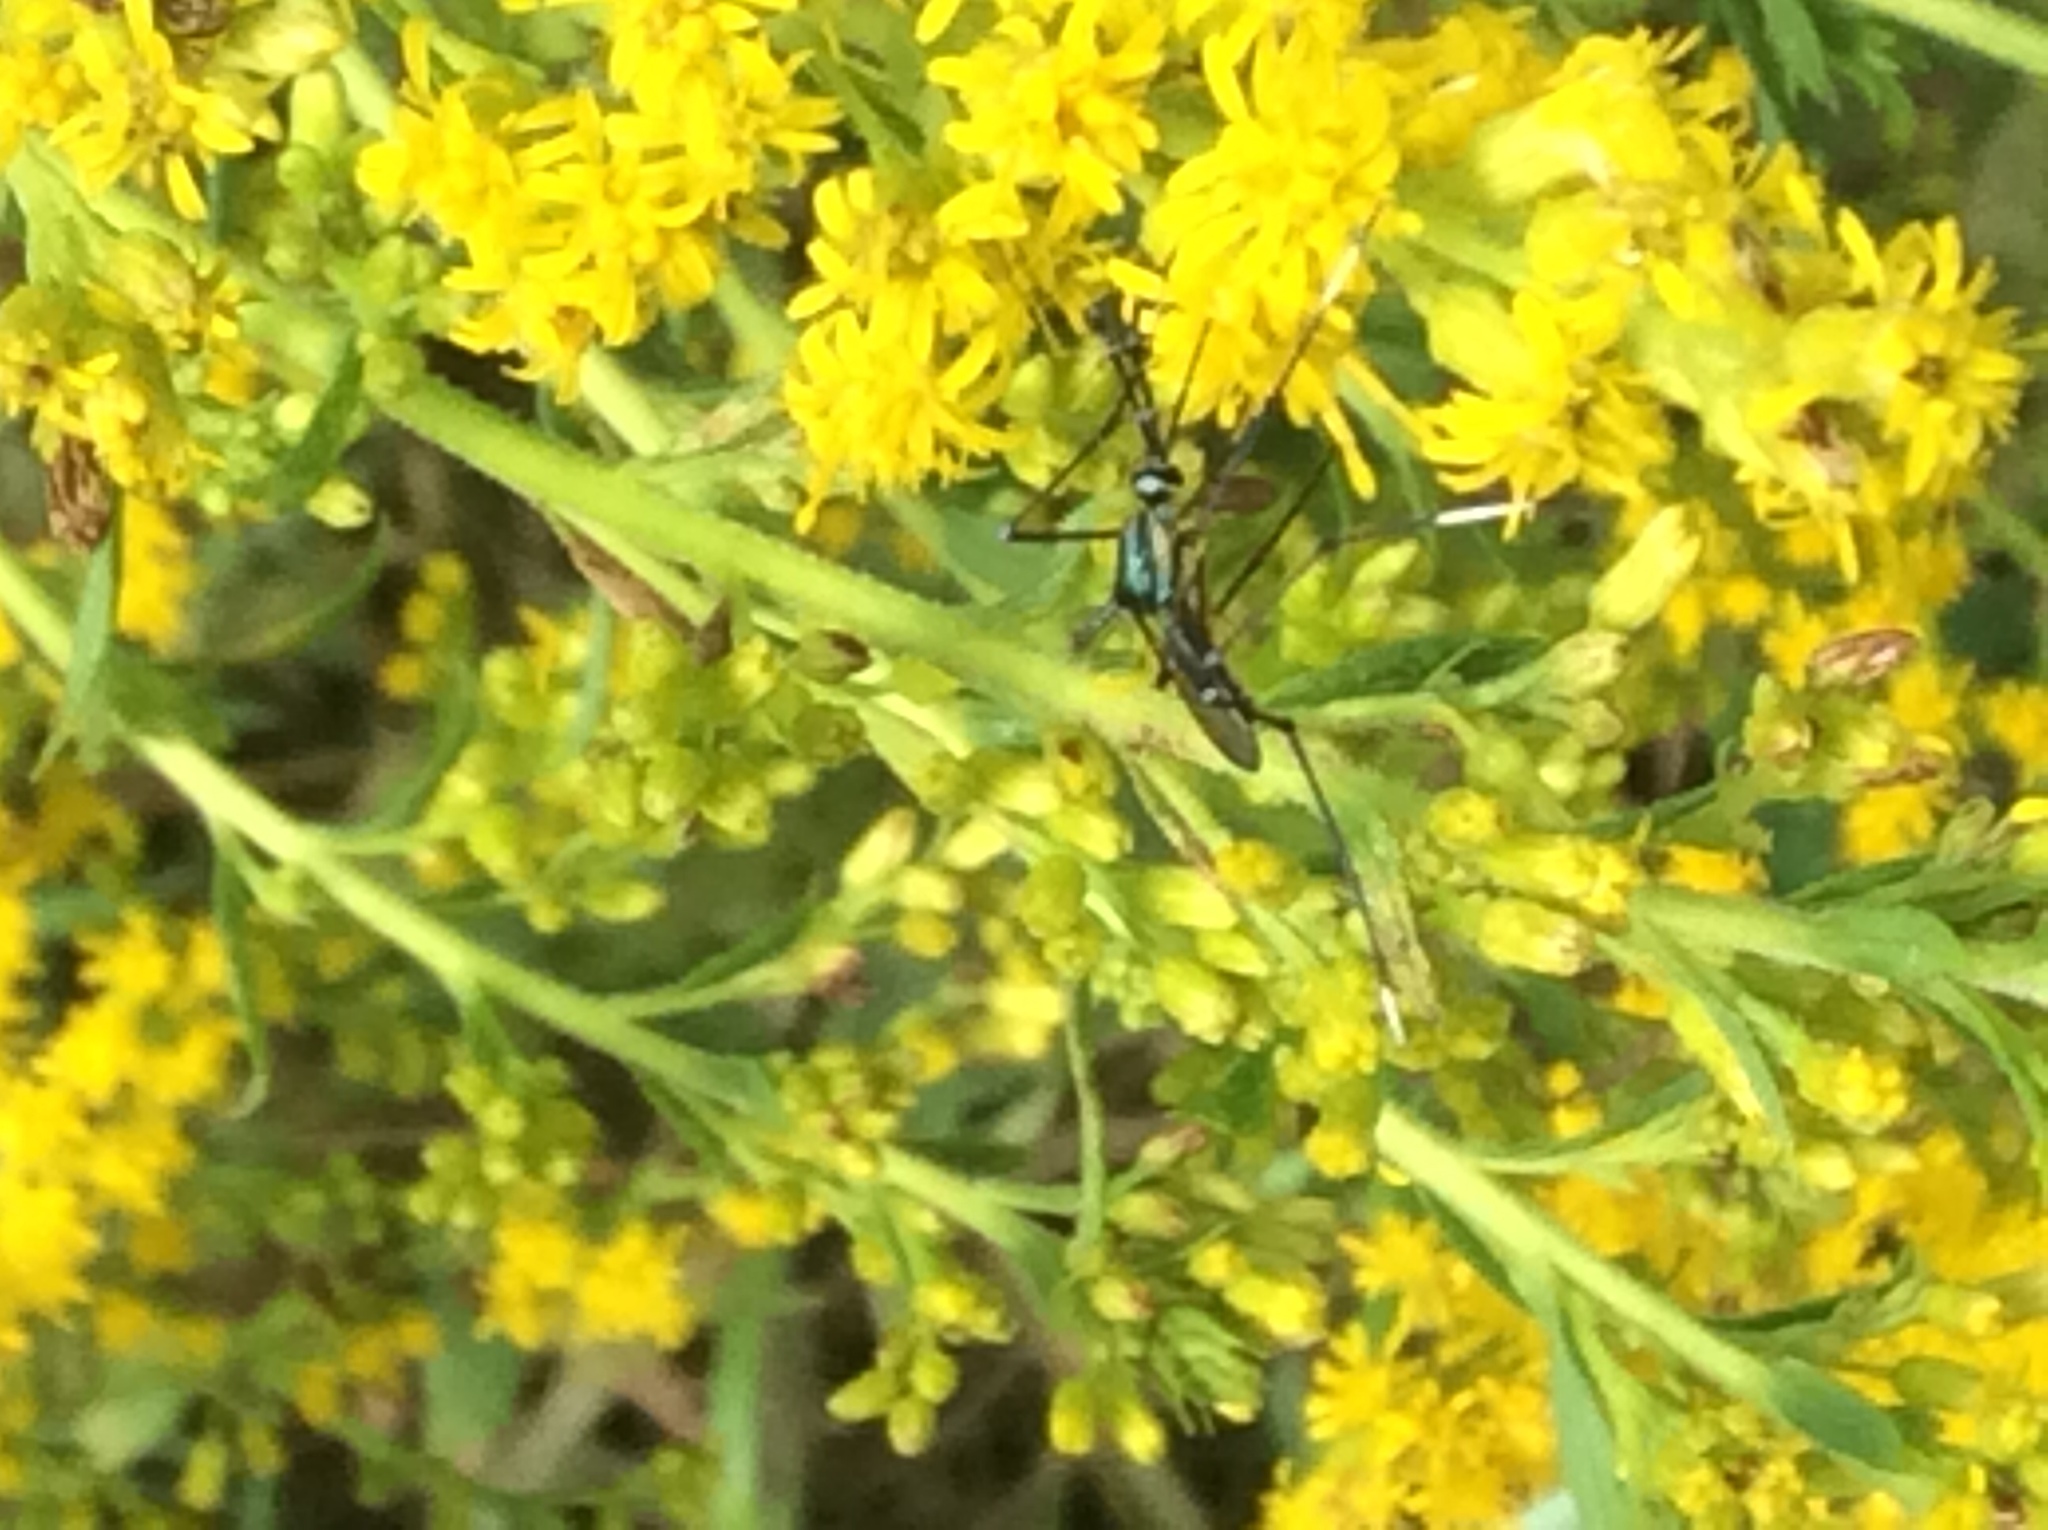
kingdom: Animalia
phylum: Arthropoda
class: Insecta
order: Diptera
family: Culicidae
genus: Toxorhynchites
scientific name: Toxorhynchites rutilus
